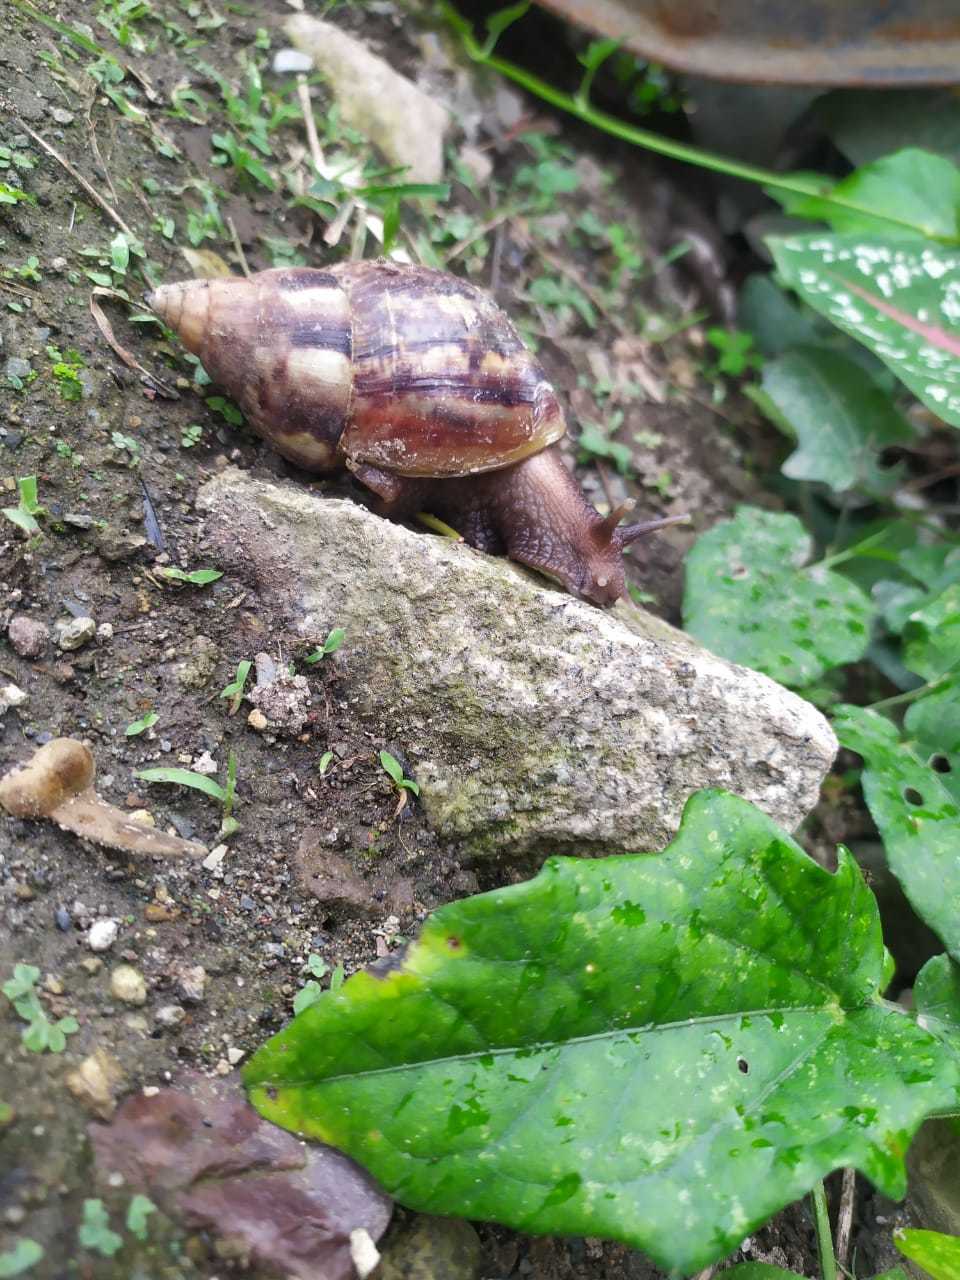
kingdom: Animalia
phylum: Mollusca
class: Gastropoda
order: Stylommatophora
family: Achatinidae
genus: Lissachatina
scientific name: Lissachatina fulica
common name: Giant african snail
